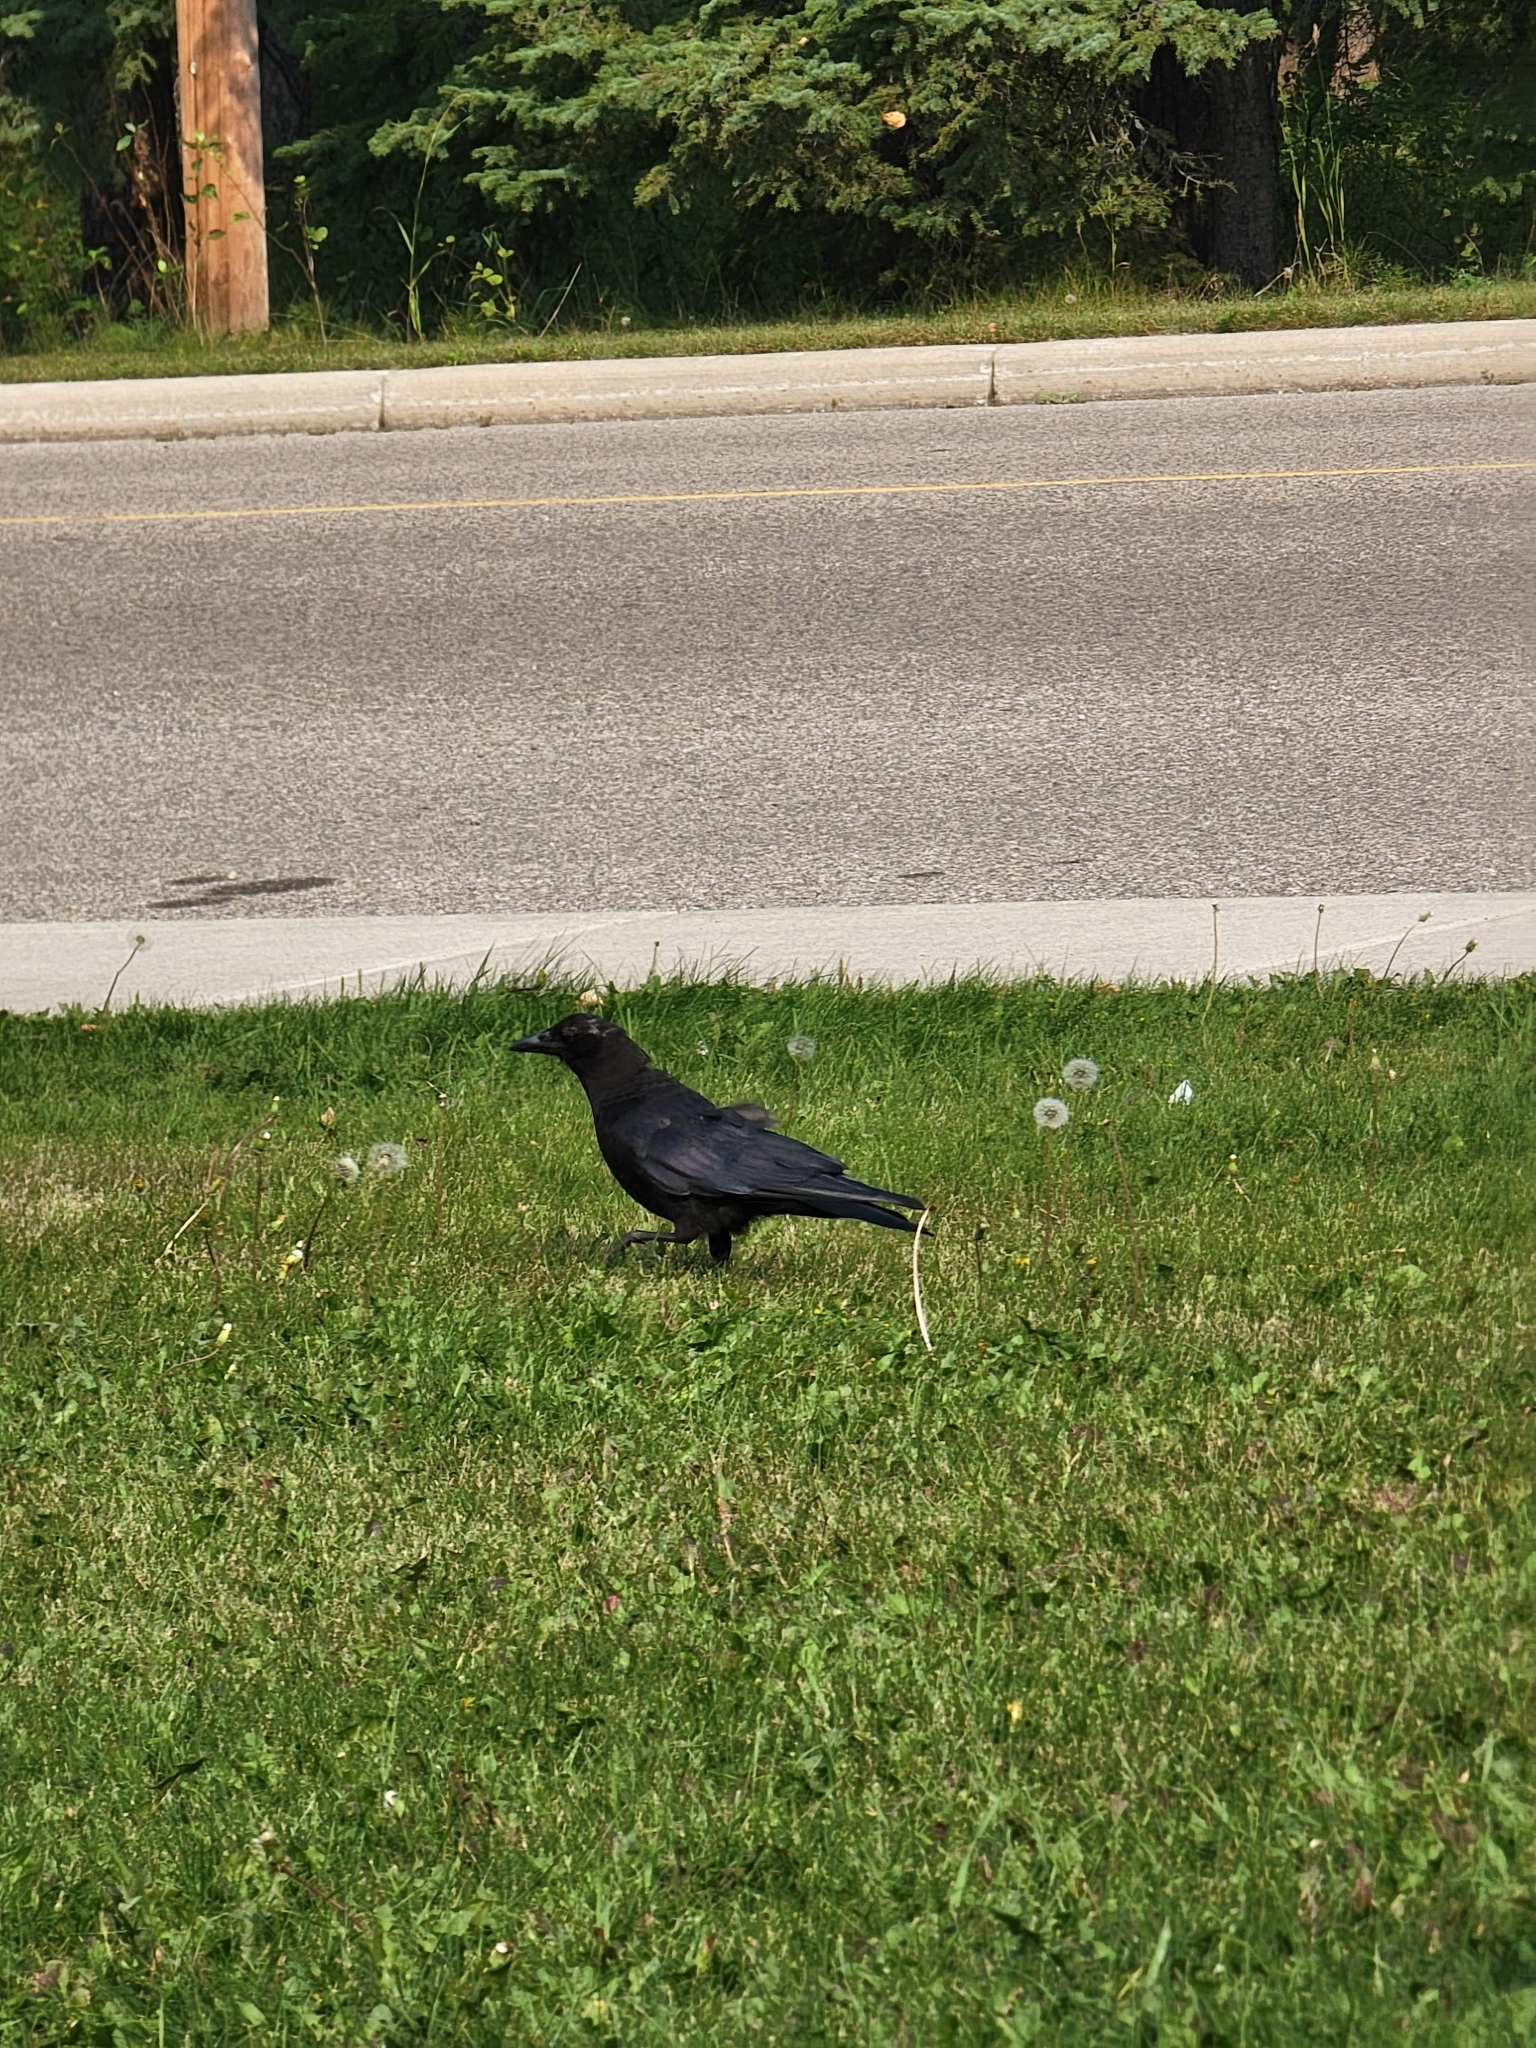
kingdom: Animalia
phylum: Chordata
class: Aves
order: Passeriformes
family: Corvidae
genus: Corvus
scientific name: Corvus brachyrhynchos
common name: American crow
